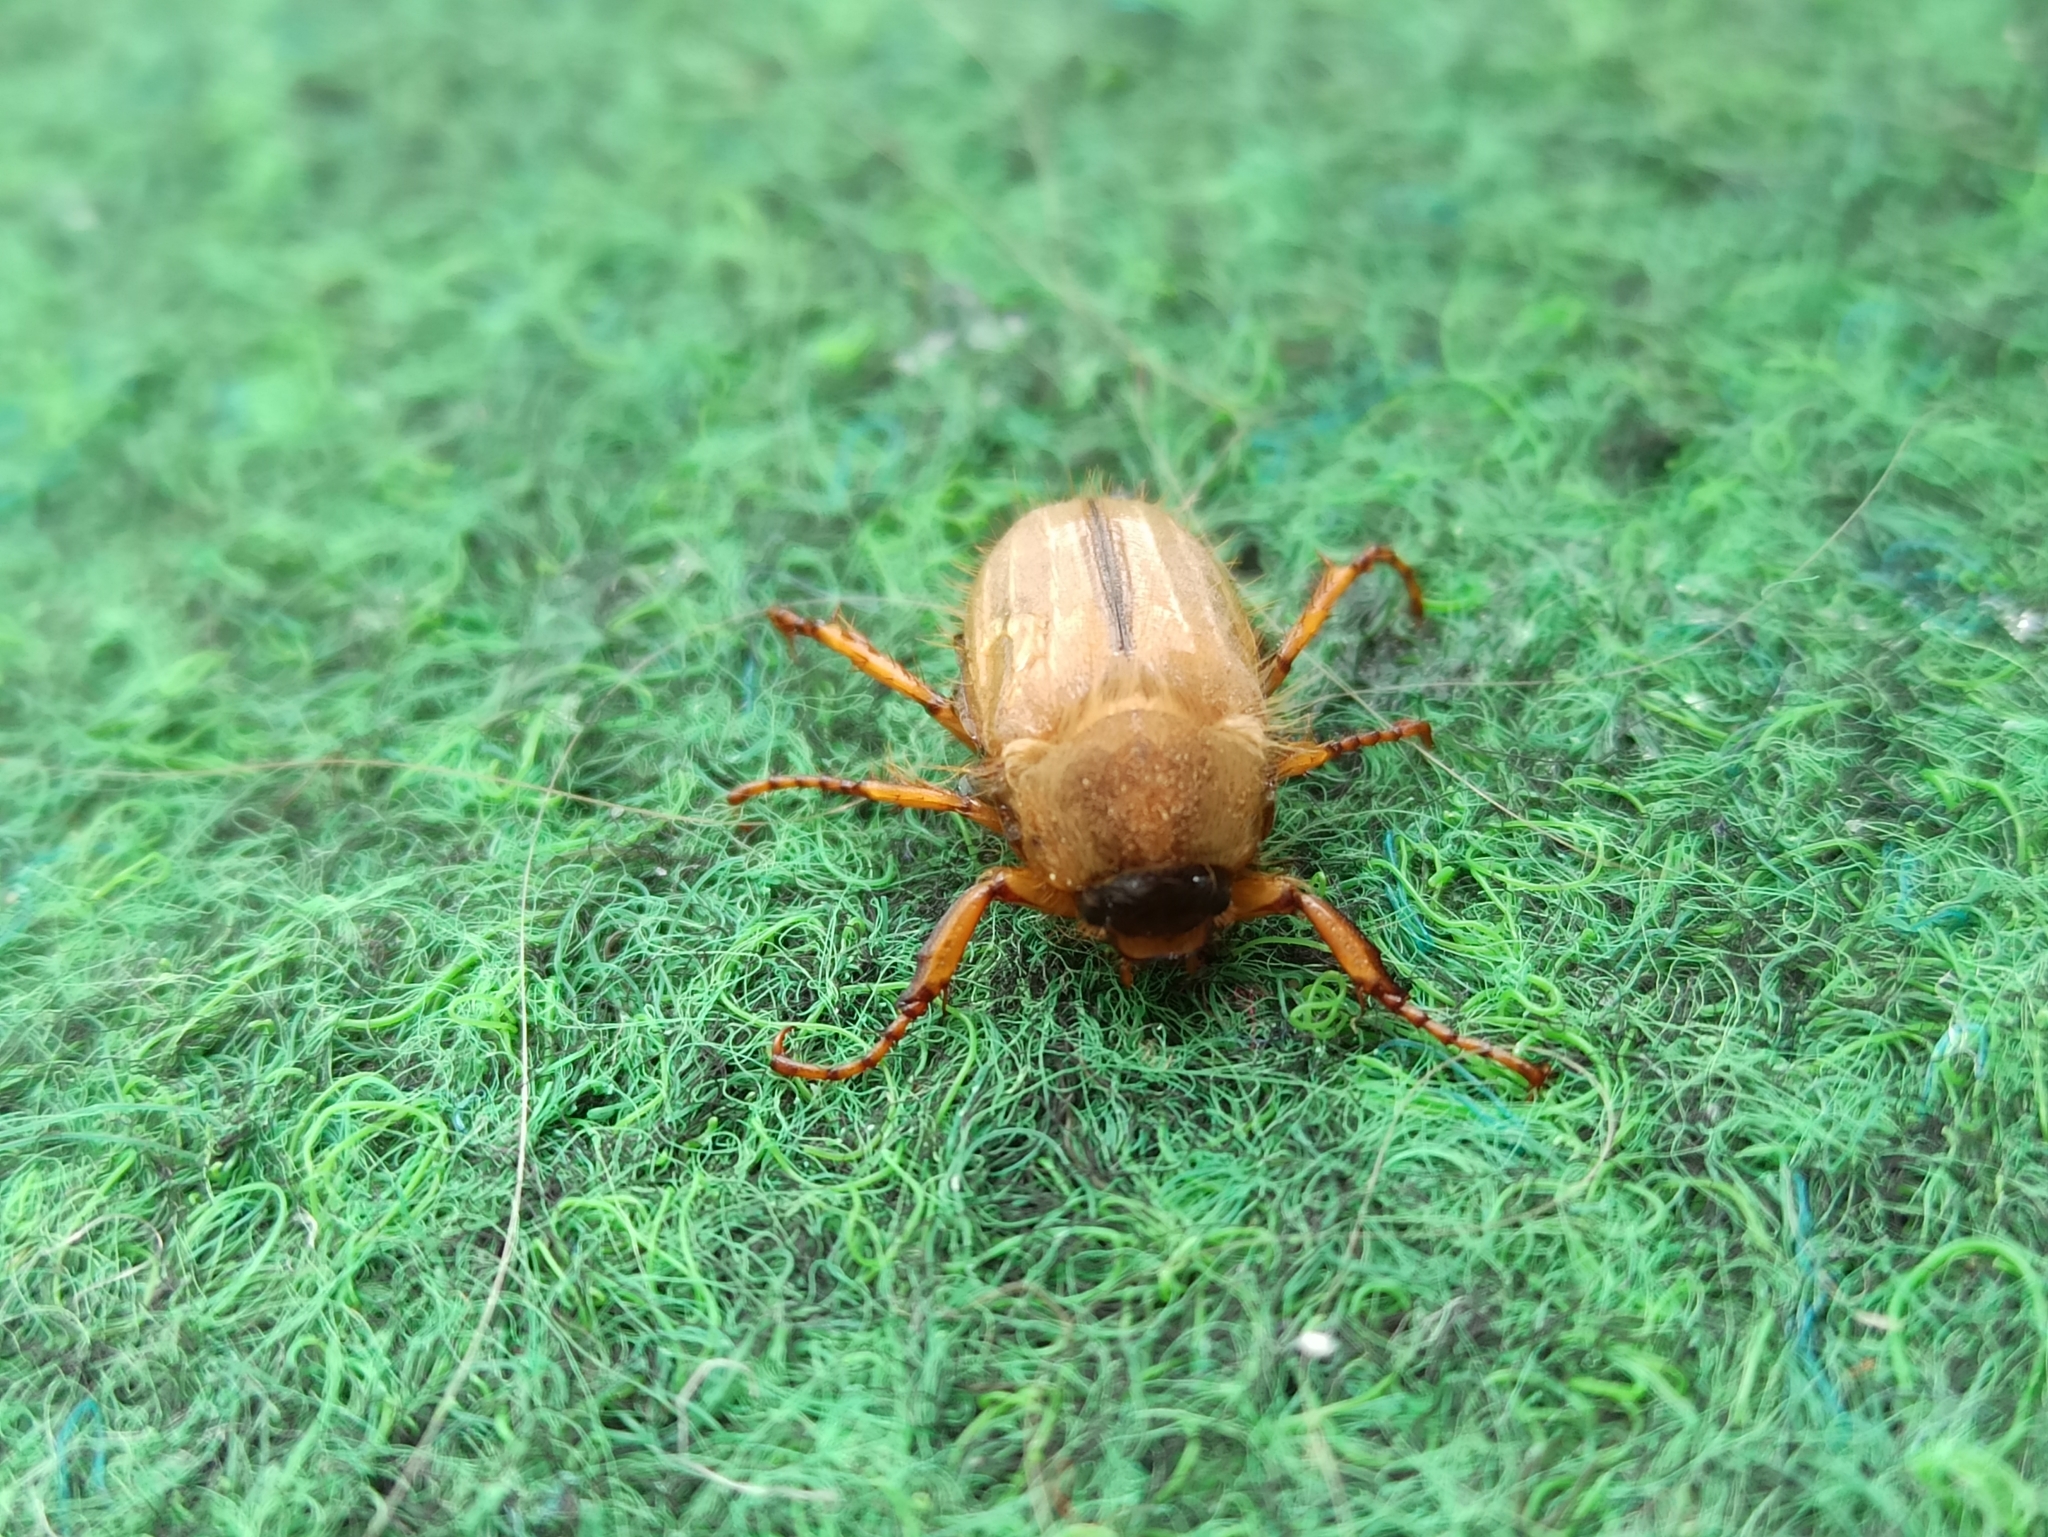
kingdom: Animalia
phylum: Arthropoda
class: Insecta
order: Coleoptera
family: Scarabaeidae
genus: Amphimallon
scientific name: Amphimallon solstitiale
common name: Summer chafer
